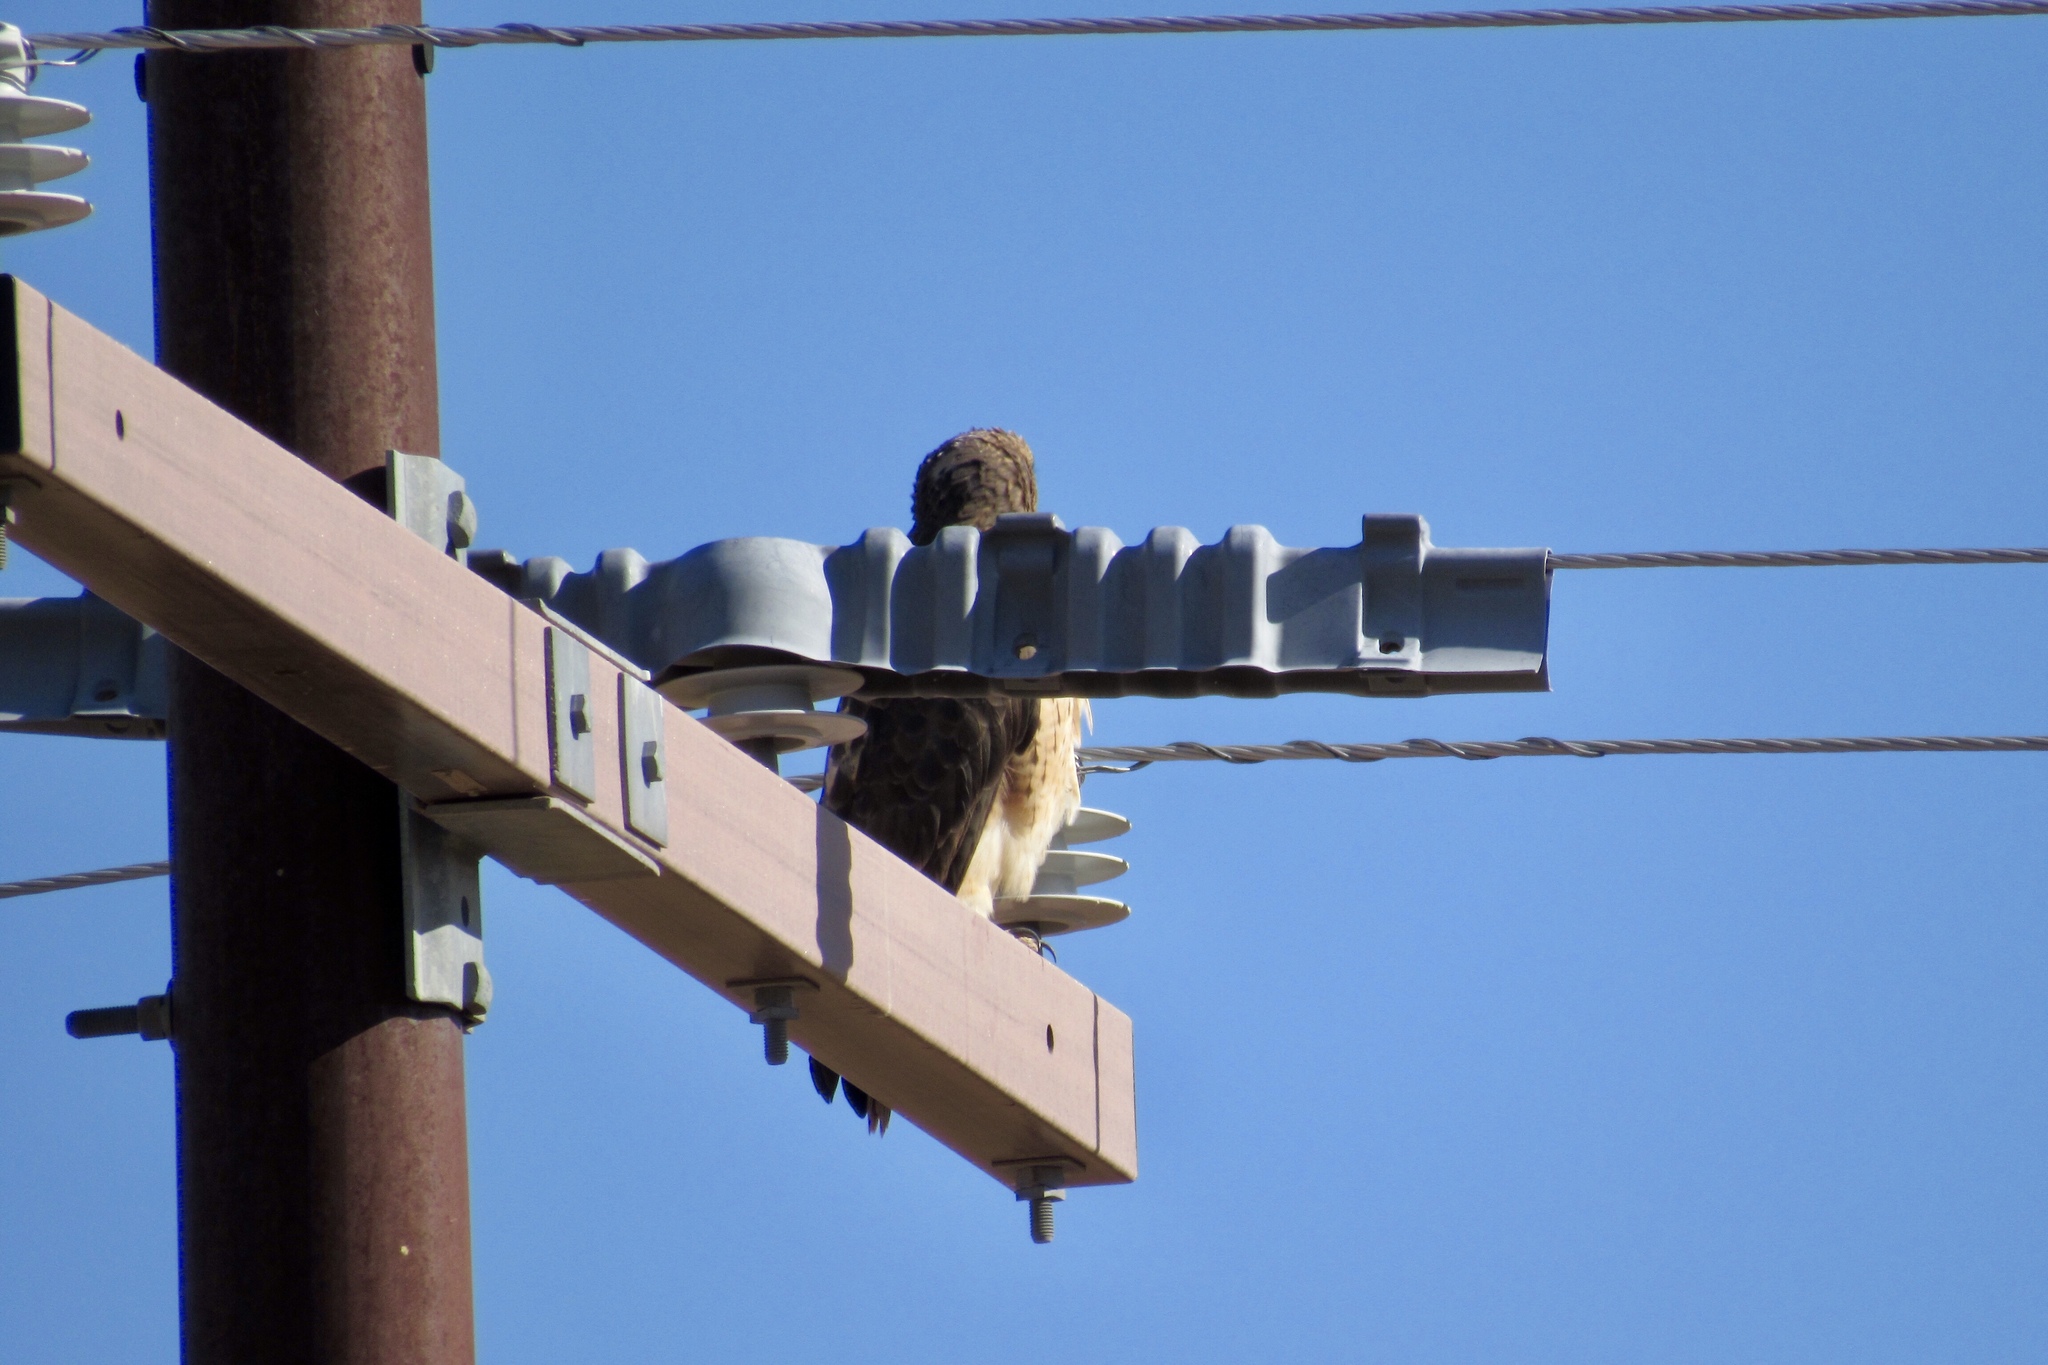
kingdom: Animalia
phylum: Chordata
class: Aves
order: Accipitriformes
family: Accipitridae
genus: Buteo
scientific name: Buteo jamaicensis
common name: Red-tailed hawk
